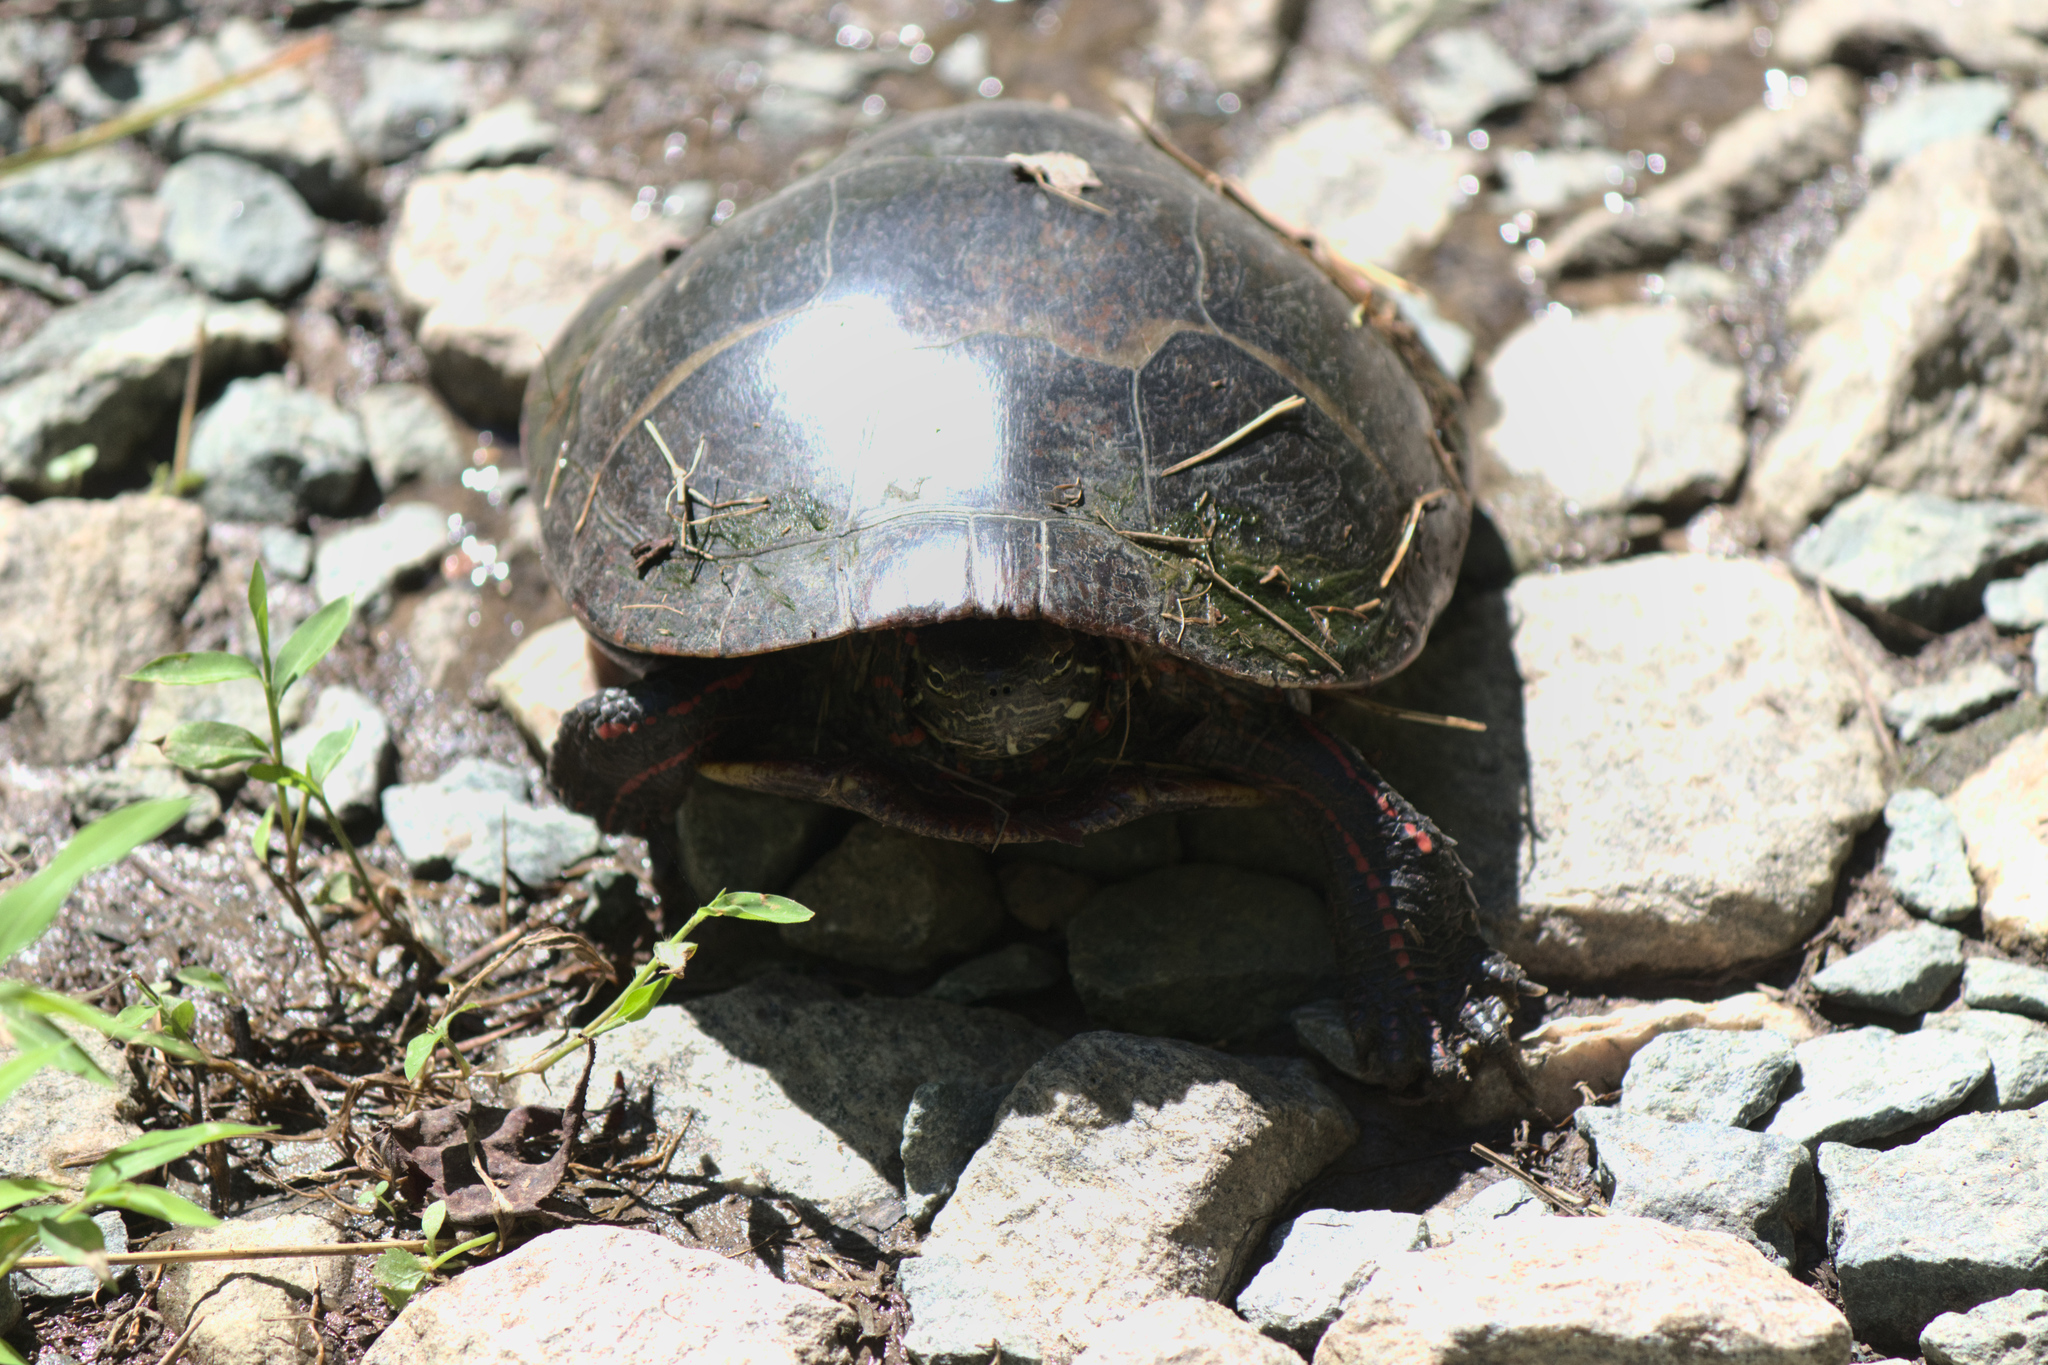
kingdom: Animalia
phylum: Chordata
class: Testudines
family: Emydidae
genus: Chrysemys
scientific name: Chrysemys picta
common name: Painted turtle
